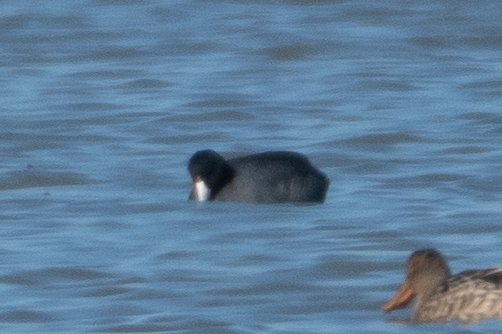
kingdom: Animalia
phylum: Chordata
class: Aves
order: Gruiformes
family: Rallidae
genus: Fulica
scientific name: Fulica americana
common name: American coot
